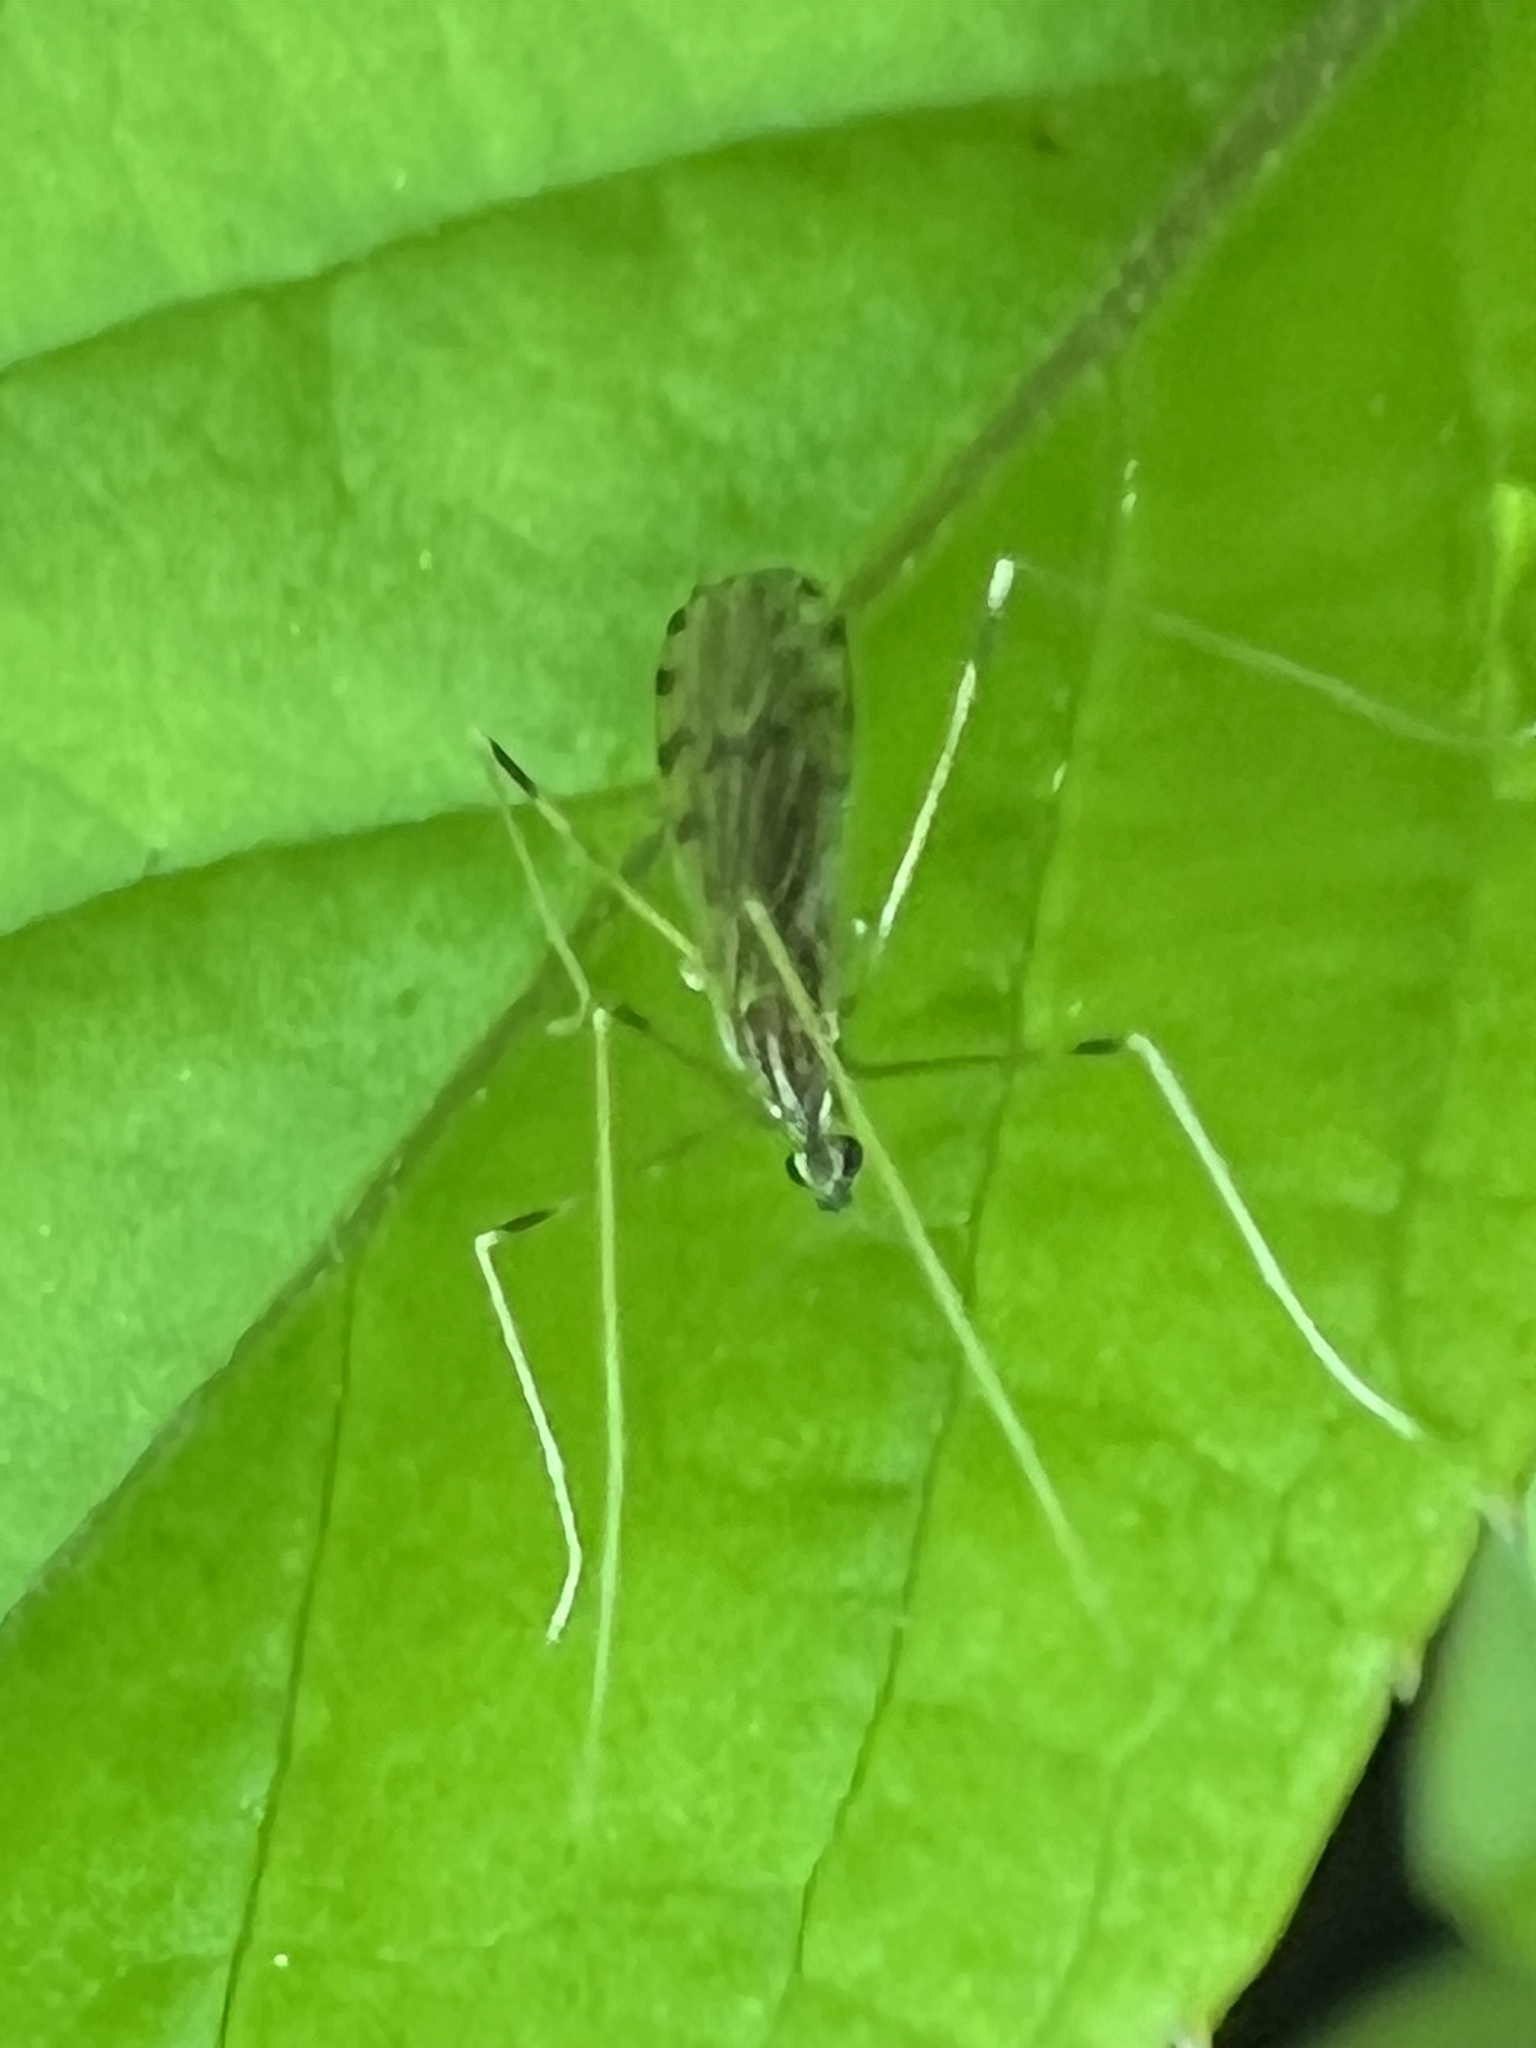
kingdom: Animalia
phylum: Arthropoda
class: Insecta
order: Diptera
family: Limoniidae
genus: Erioptera
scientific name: Erioptera parva
